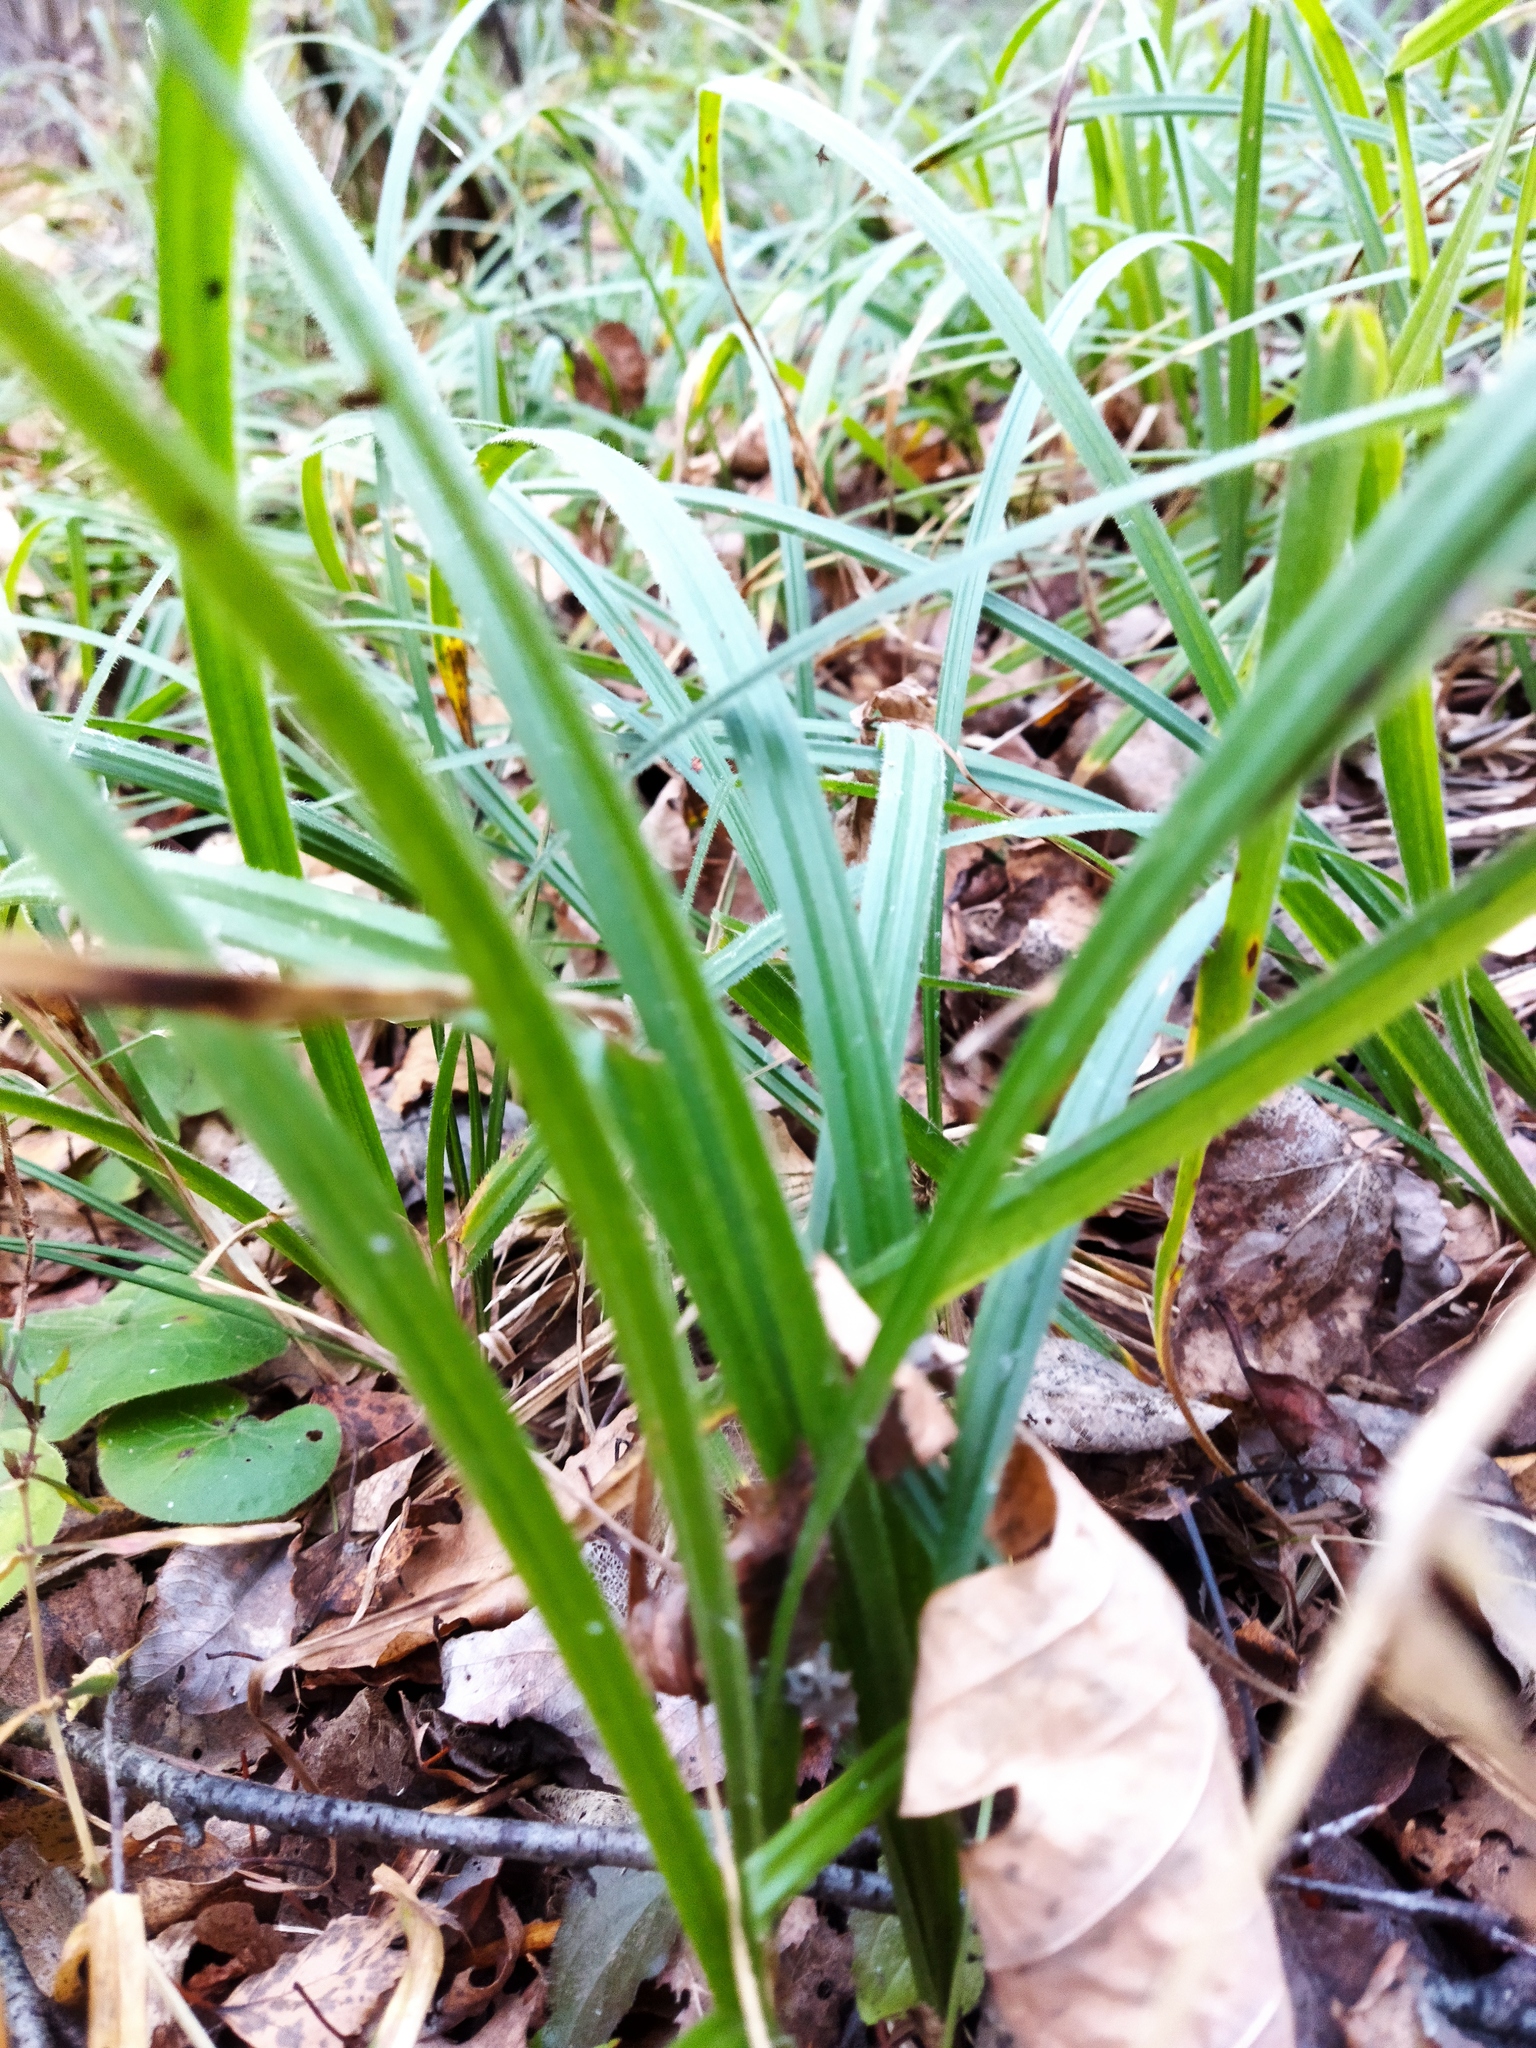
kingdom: Plantae
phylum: Tracheophyta
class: Liliopsida
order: Poales
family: Cyperaceae
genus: Carex
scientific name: Carex pilosa
